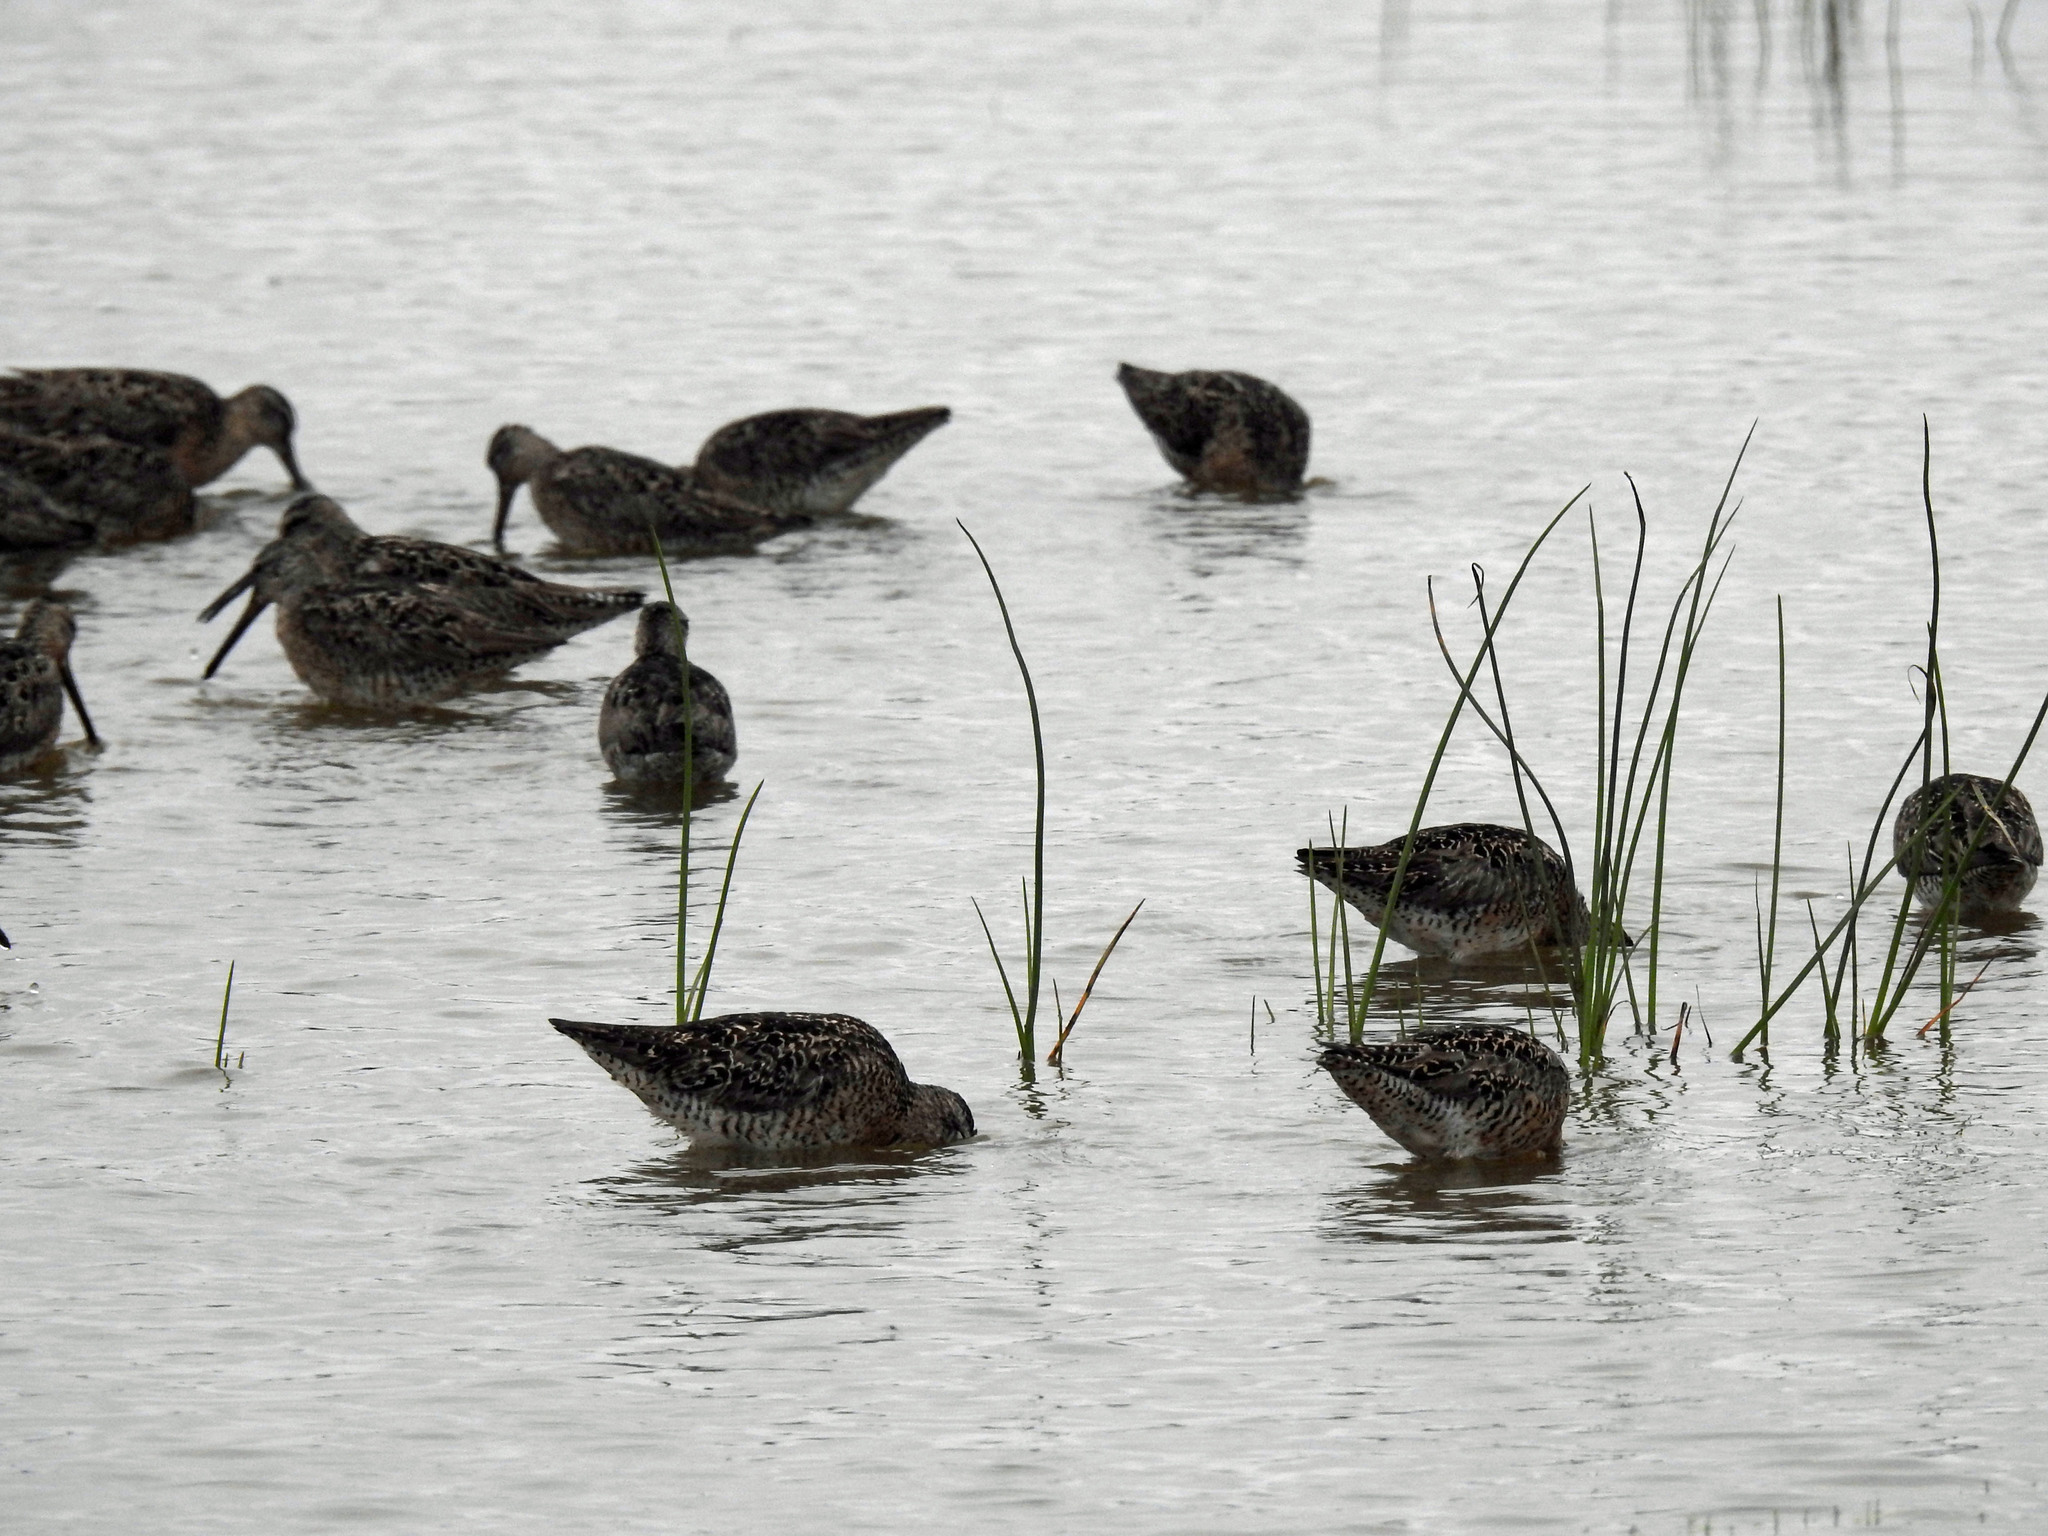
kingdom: Animalia
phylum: Chordata
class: Aves
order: Charadriiformes
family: Scolopacidae
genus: Limnodromus
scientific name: Limnodromus griseus
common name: Short-billed dowitcher
